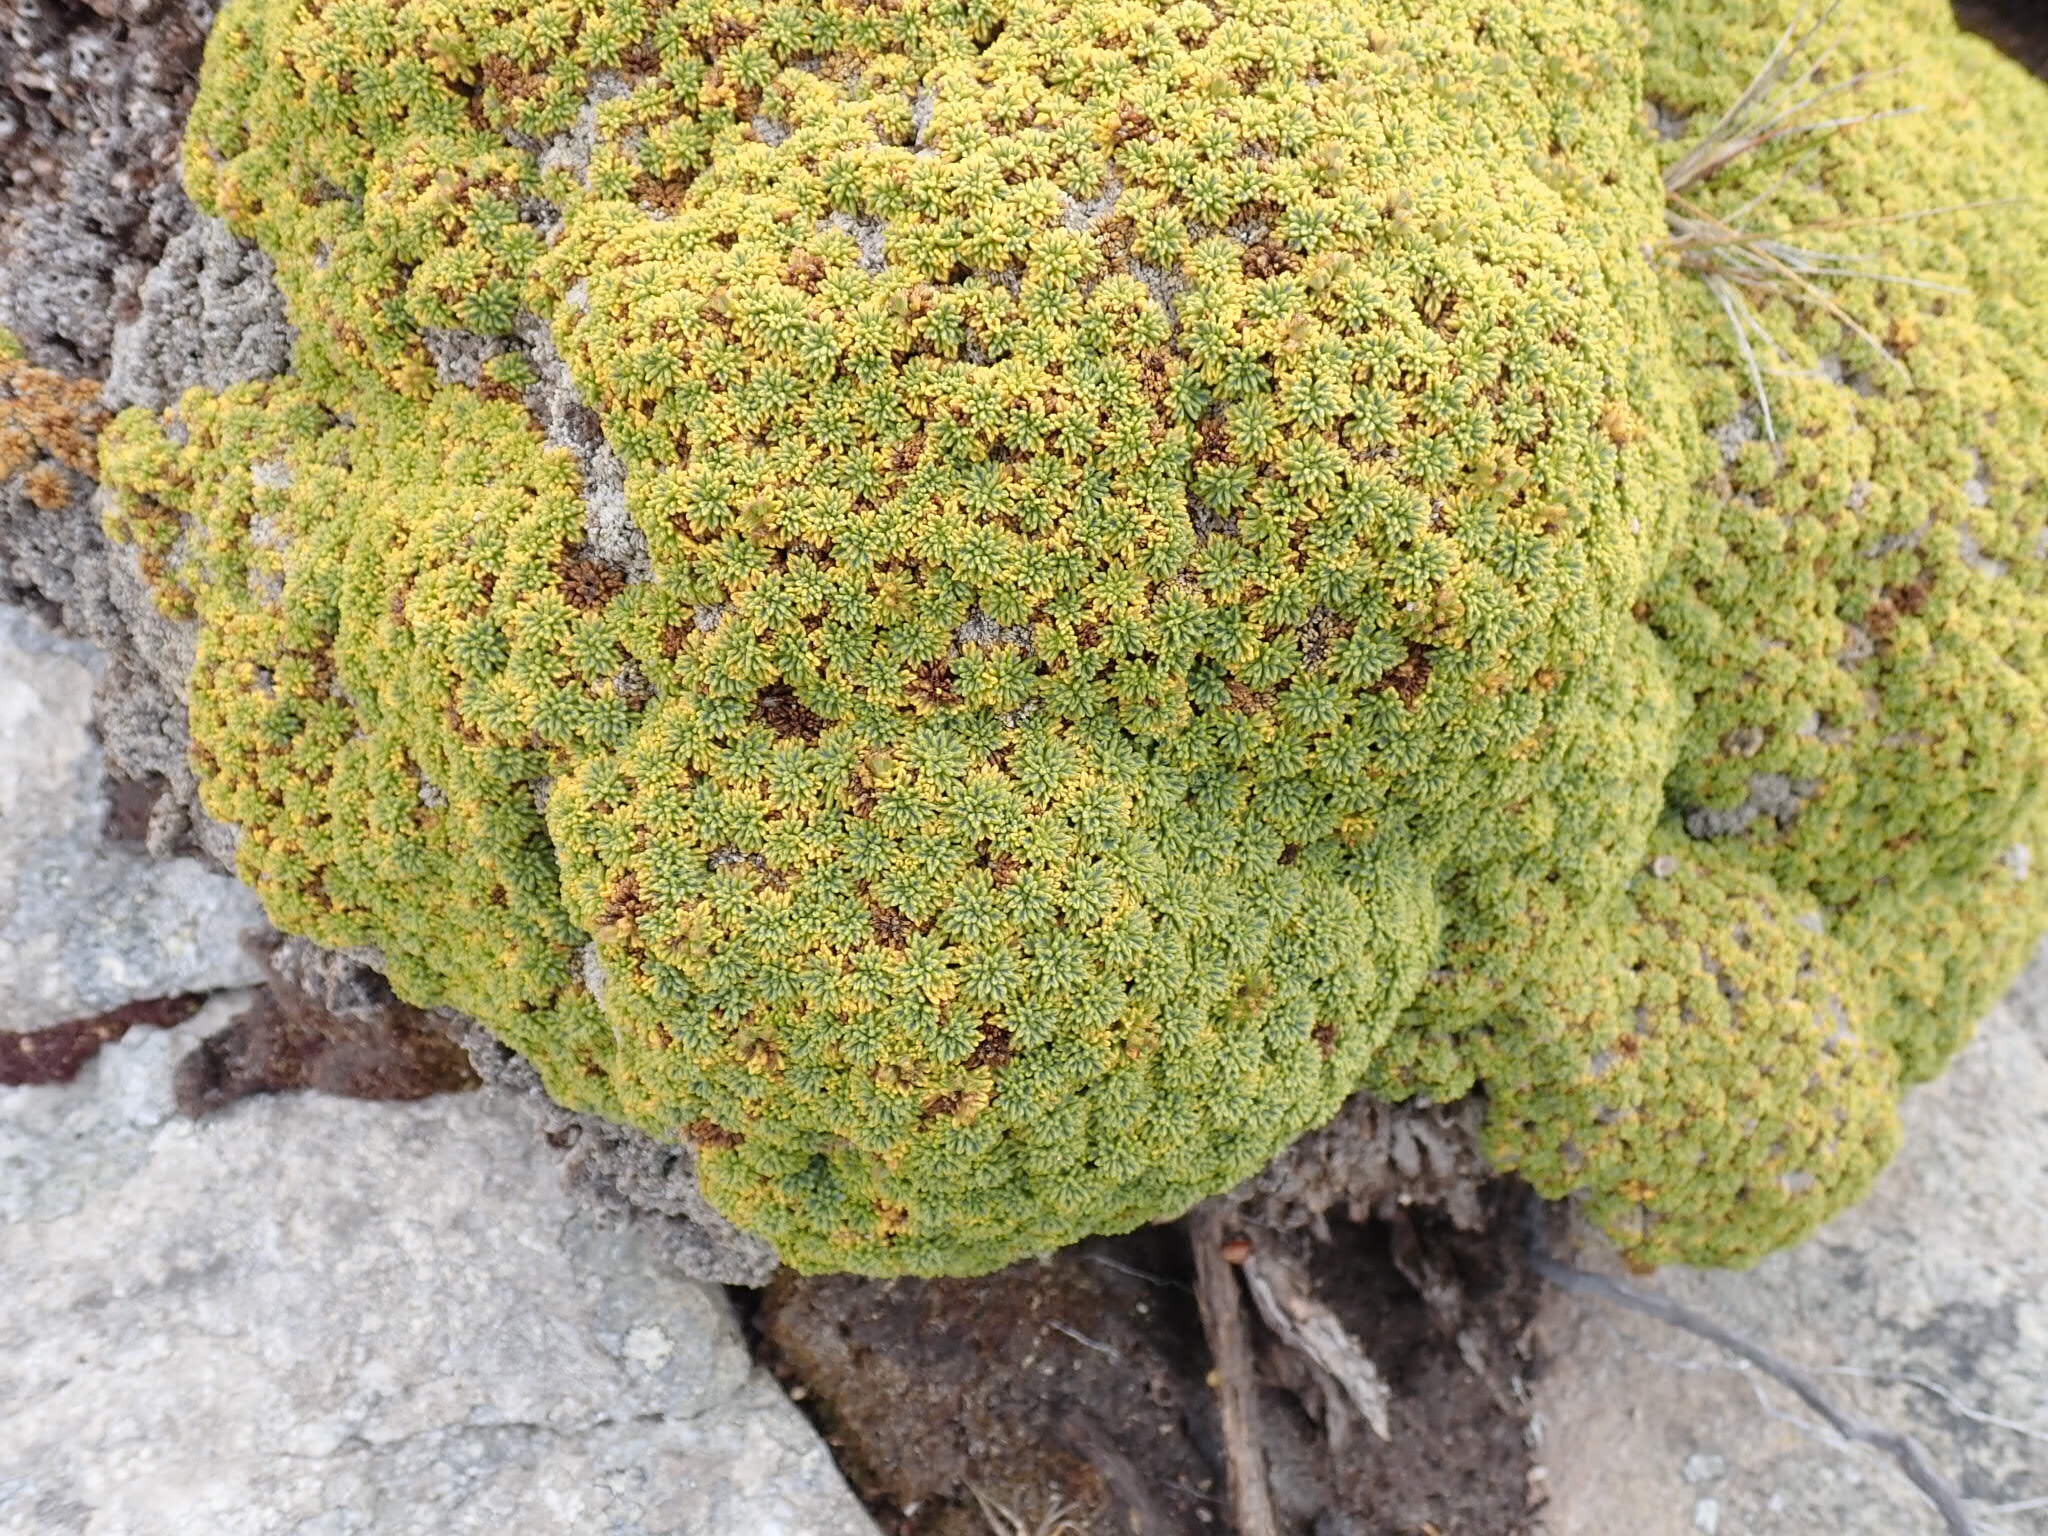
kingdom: Plantae
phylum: Tracheophyta
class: Magnoliopsida
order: Apiales
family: Apiaceae
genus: Bolax
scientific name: Bolax gummifera
